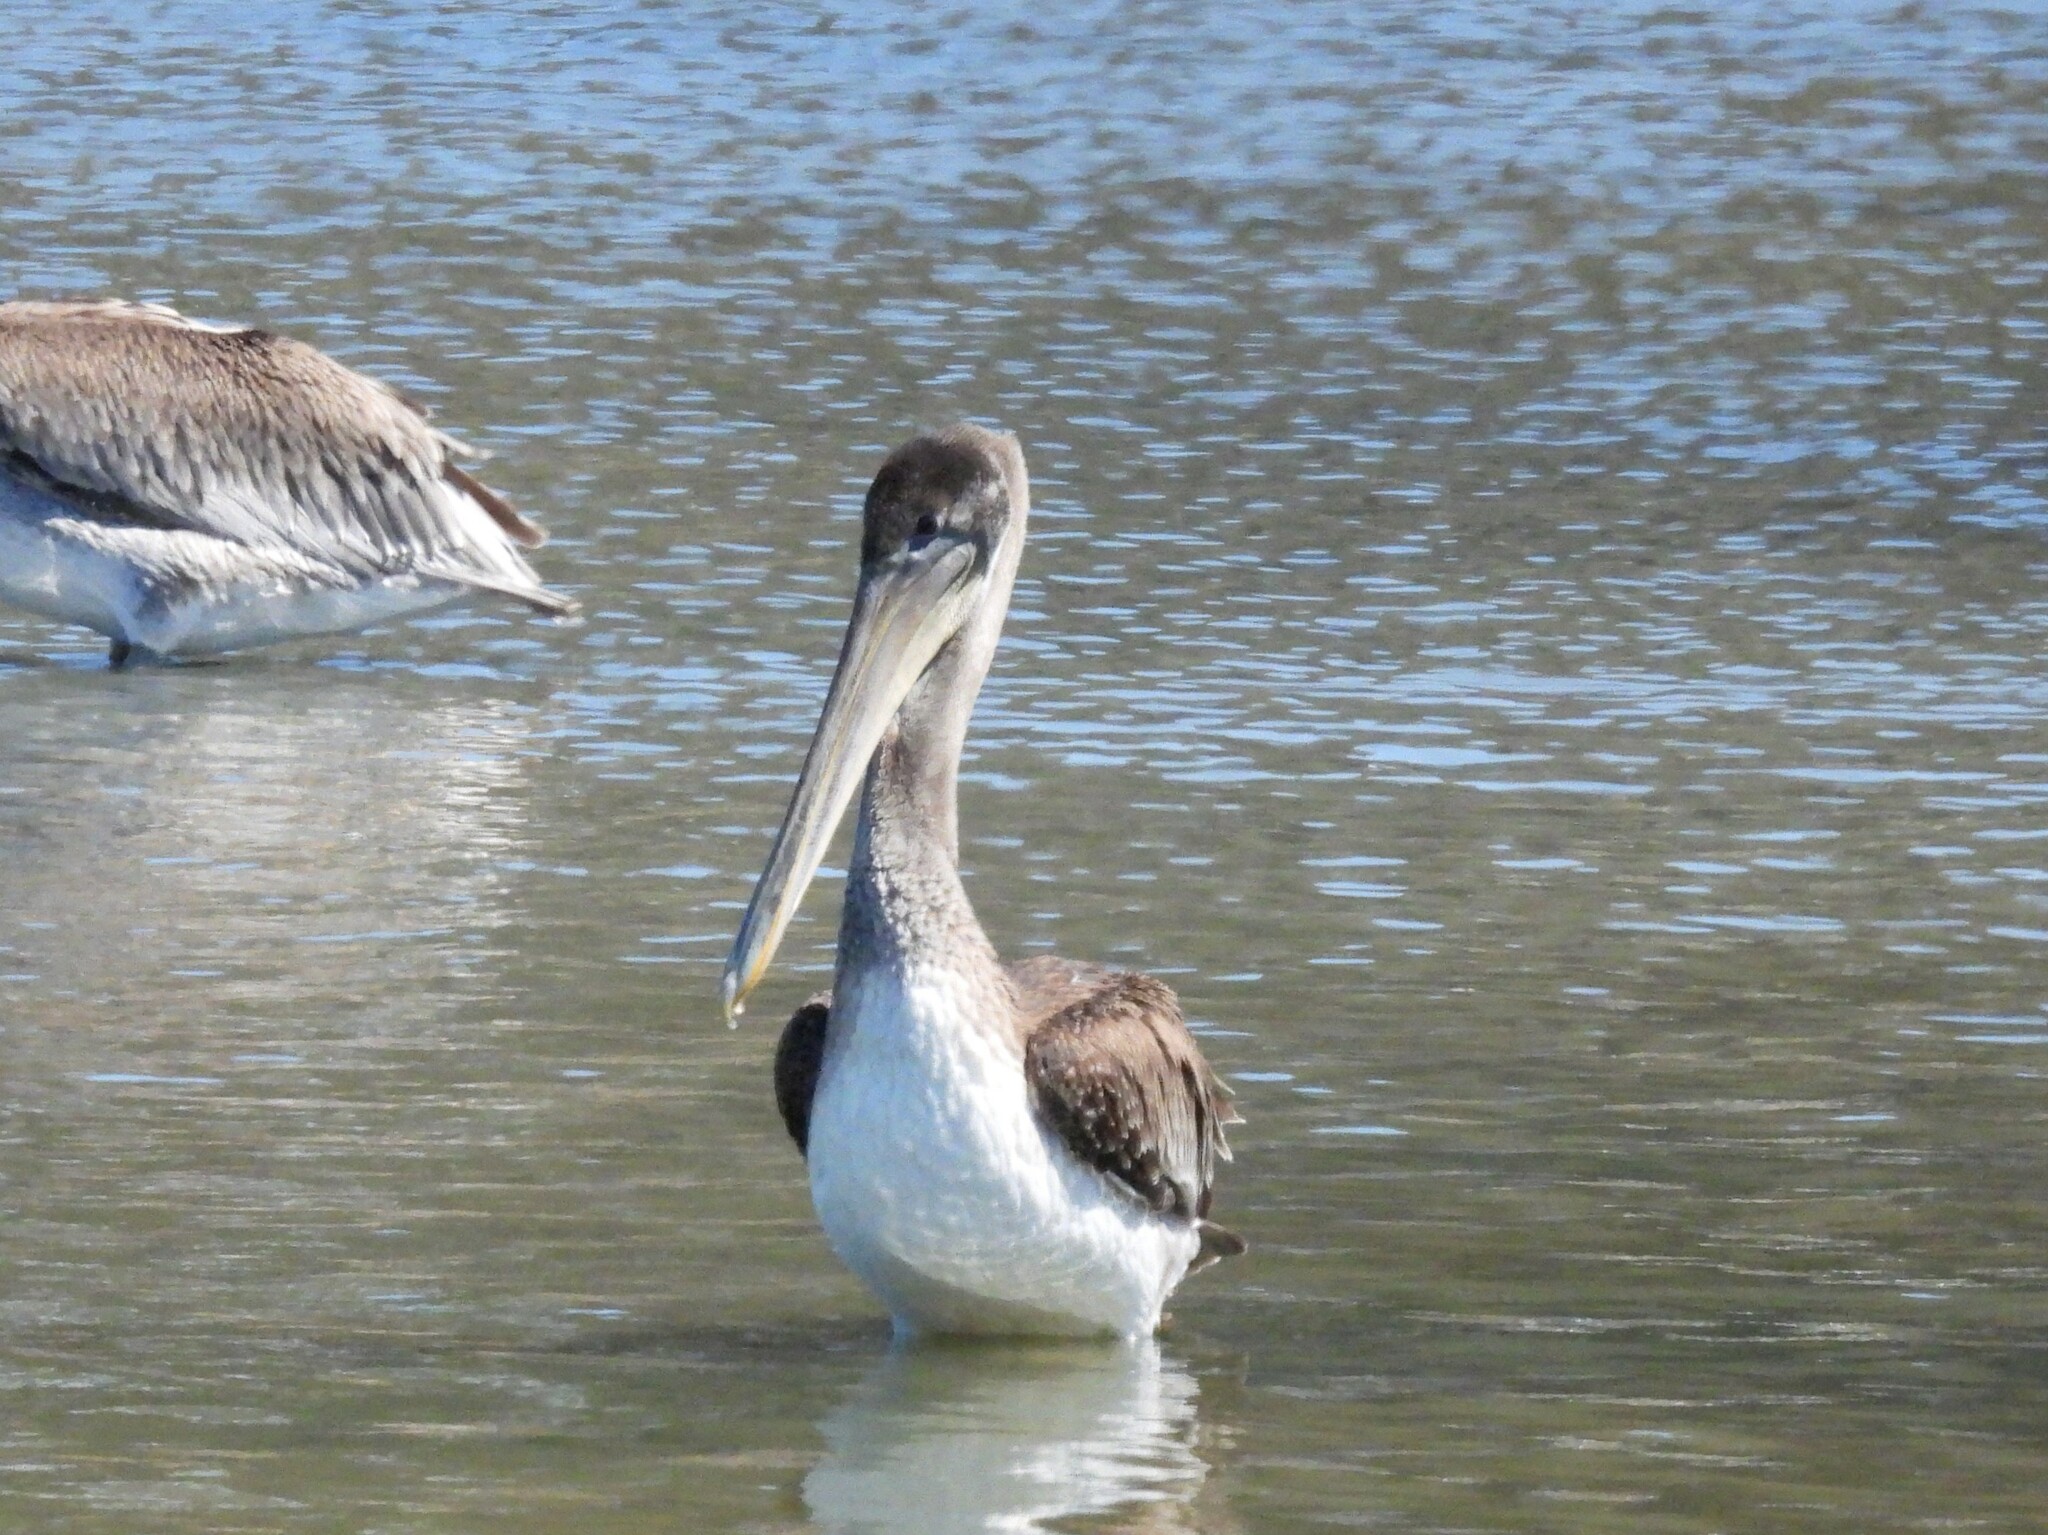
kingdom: Animalia
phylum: Chordata
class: Aves
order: Pelecaniformes
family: Pelecanidae
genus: Pelecanus
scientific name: Pelecanus occidentalis
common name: Brown pelican
